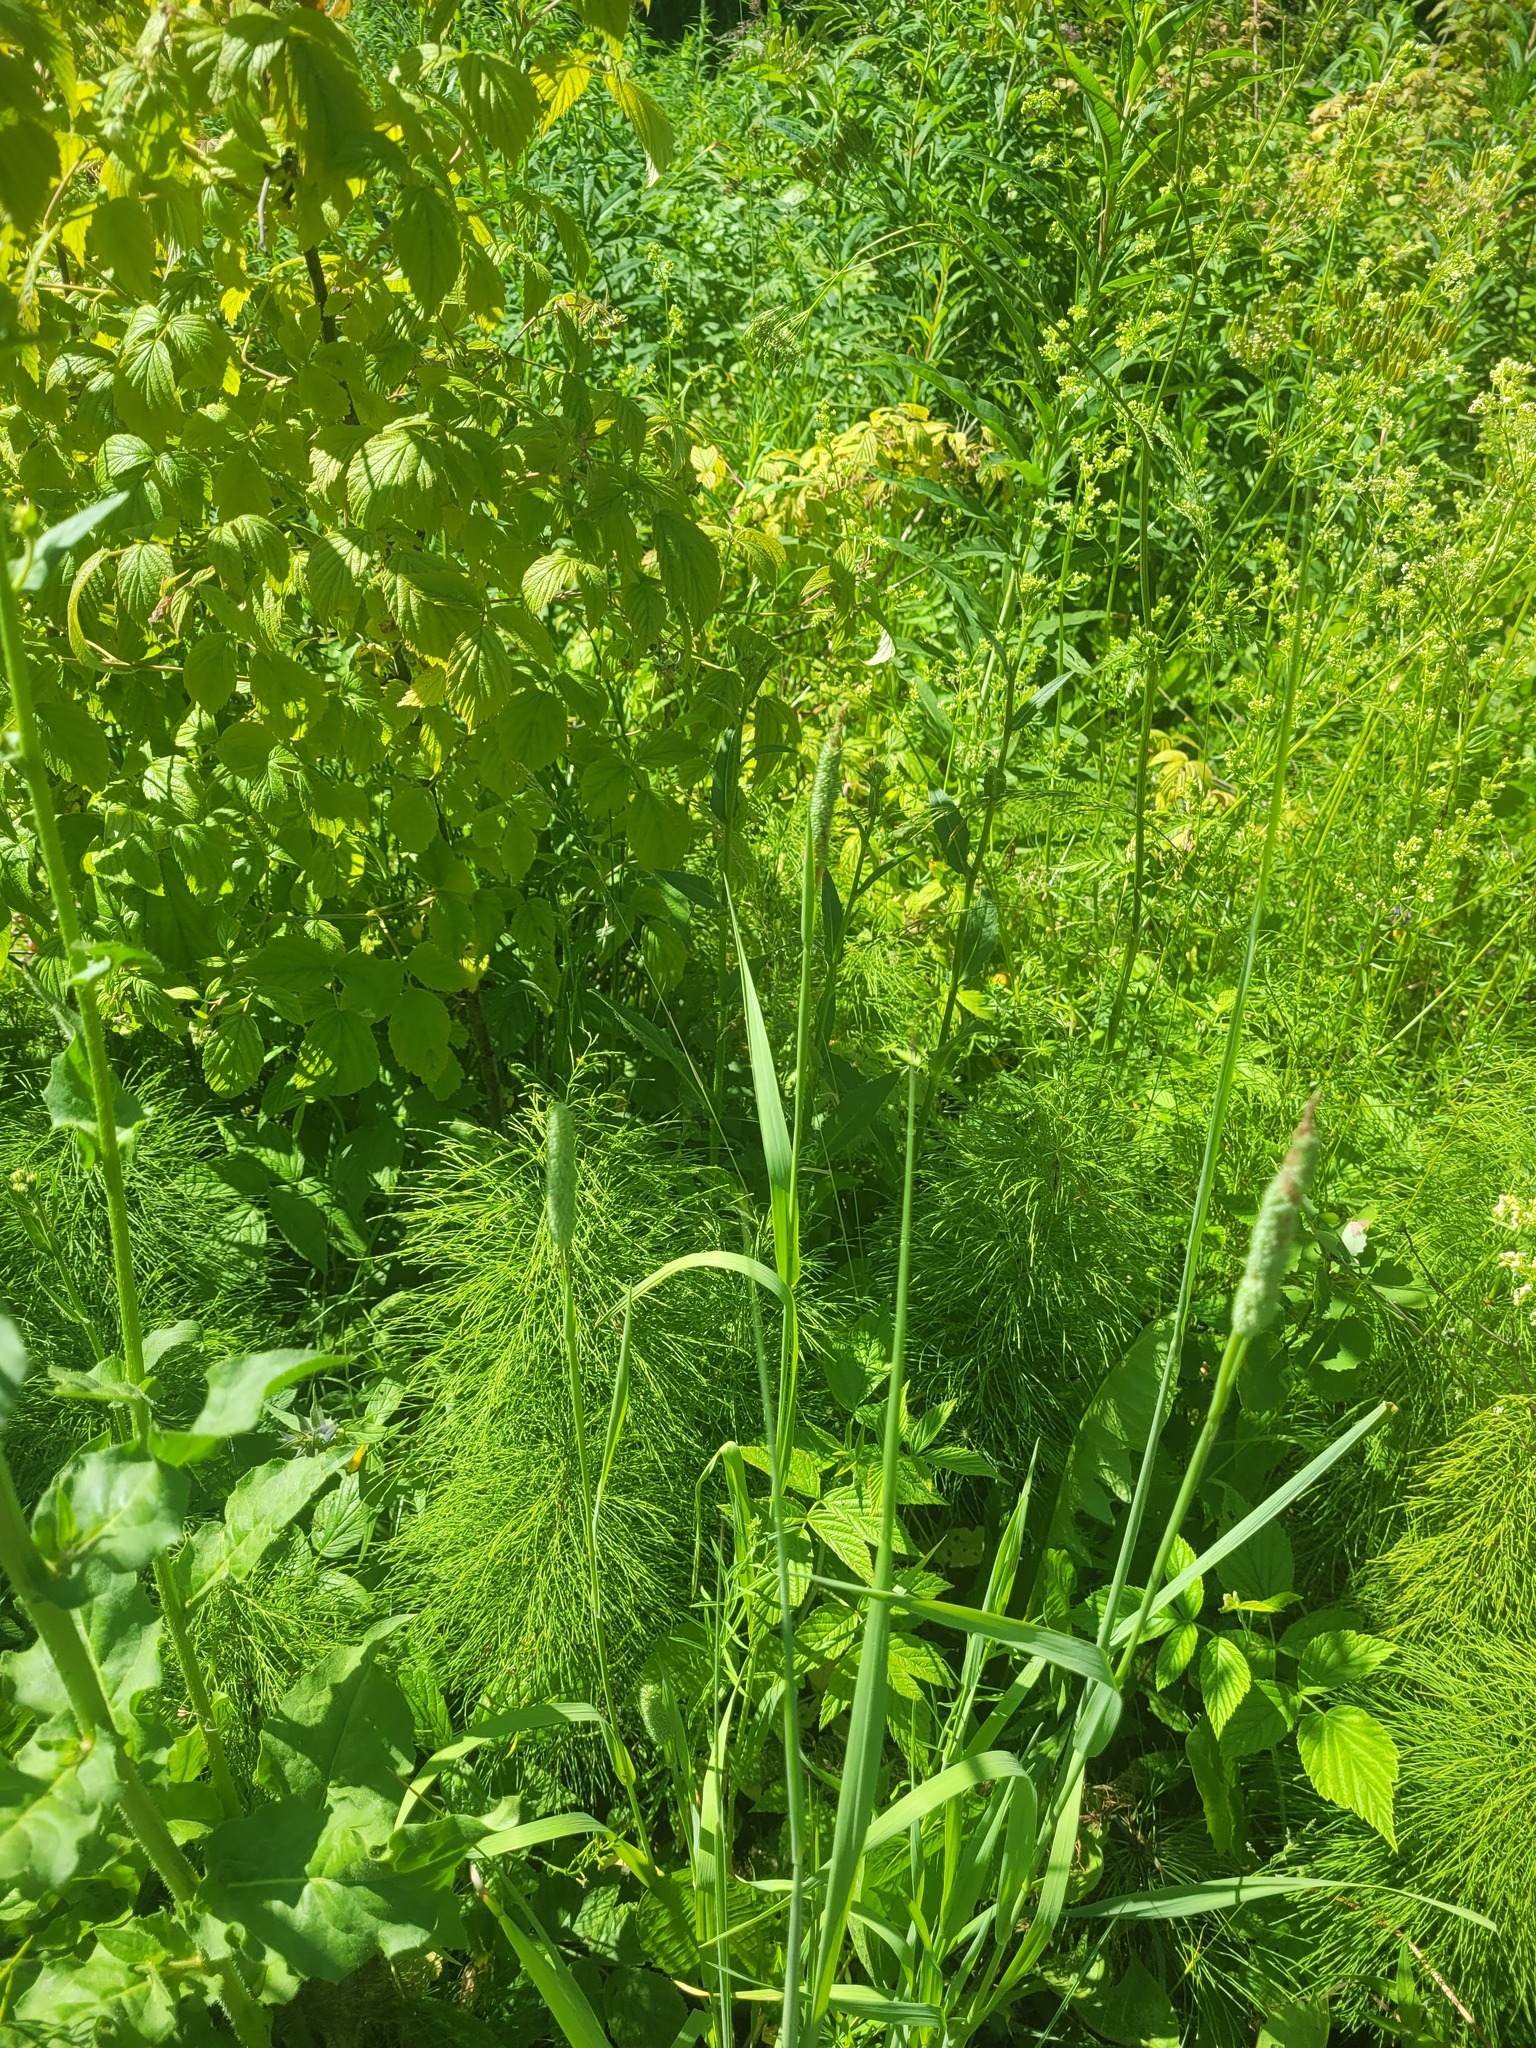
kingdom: Plantae
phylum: Tracheophyta
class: Polypodiopsida
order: Equisetales
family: Equisetaceae
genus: Equisetum
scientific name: Equisetum sylvaticum
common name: Wood horsetail
